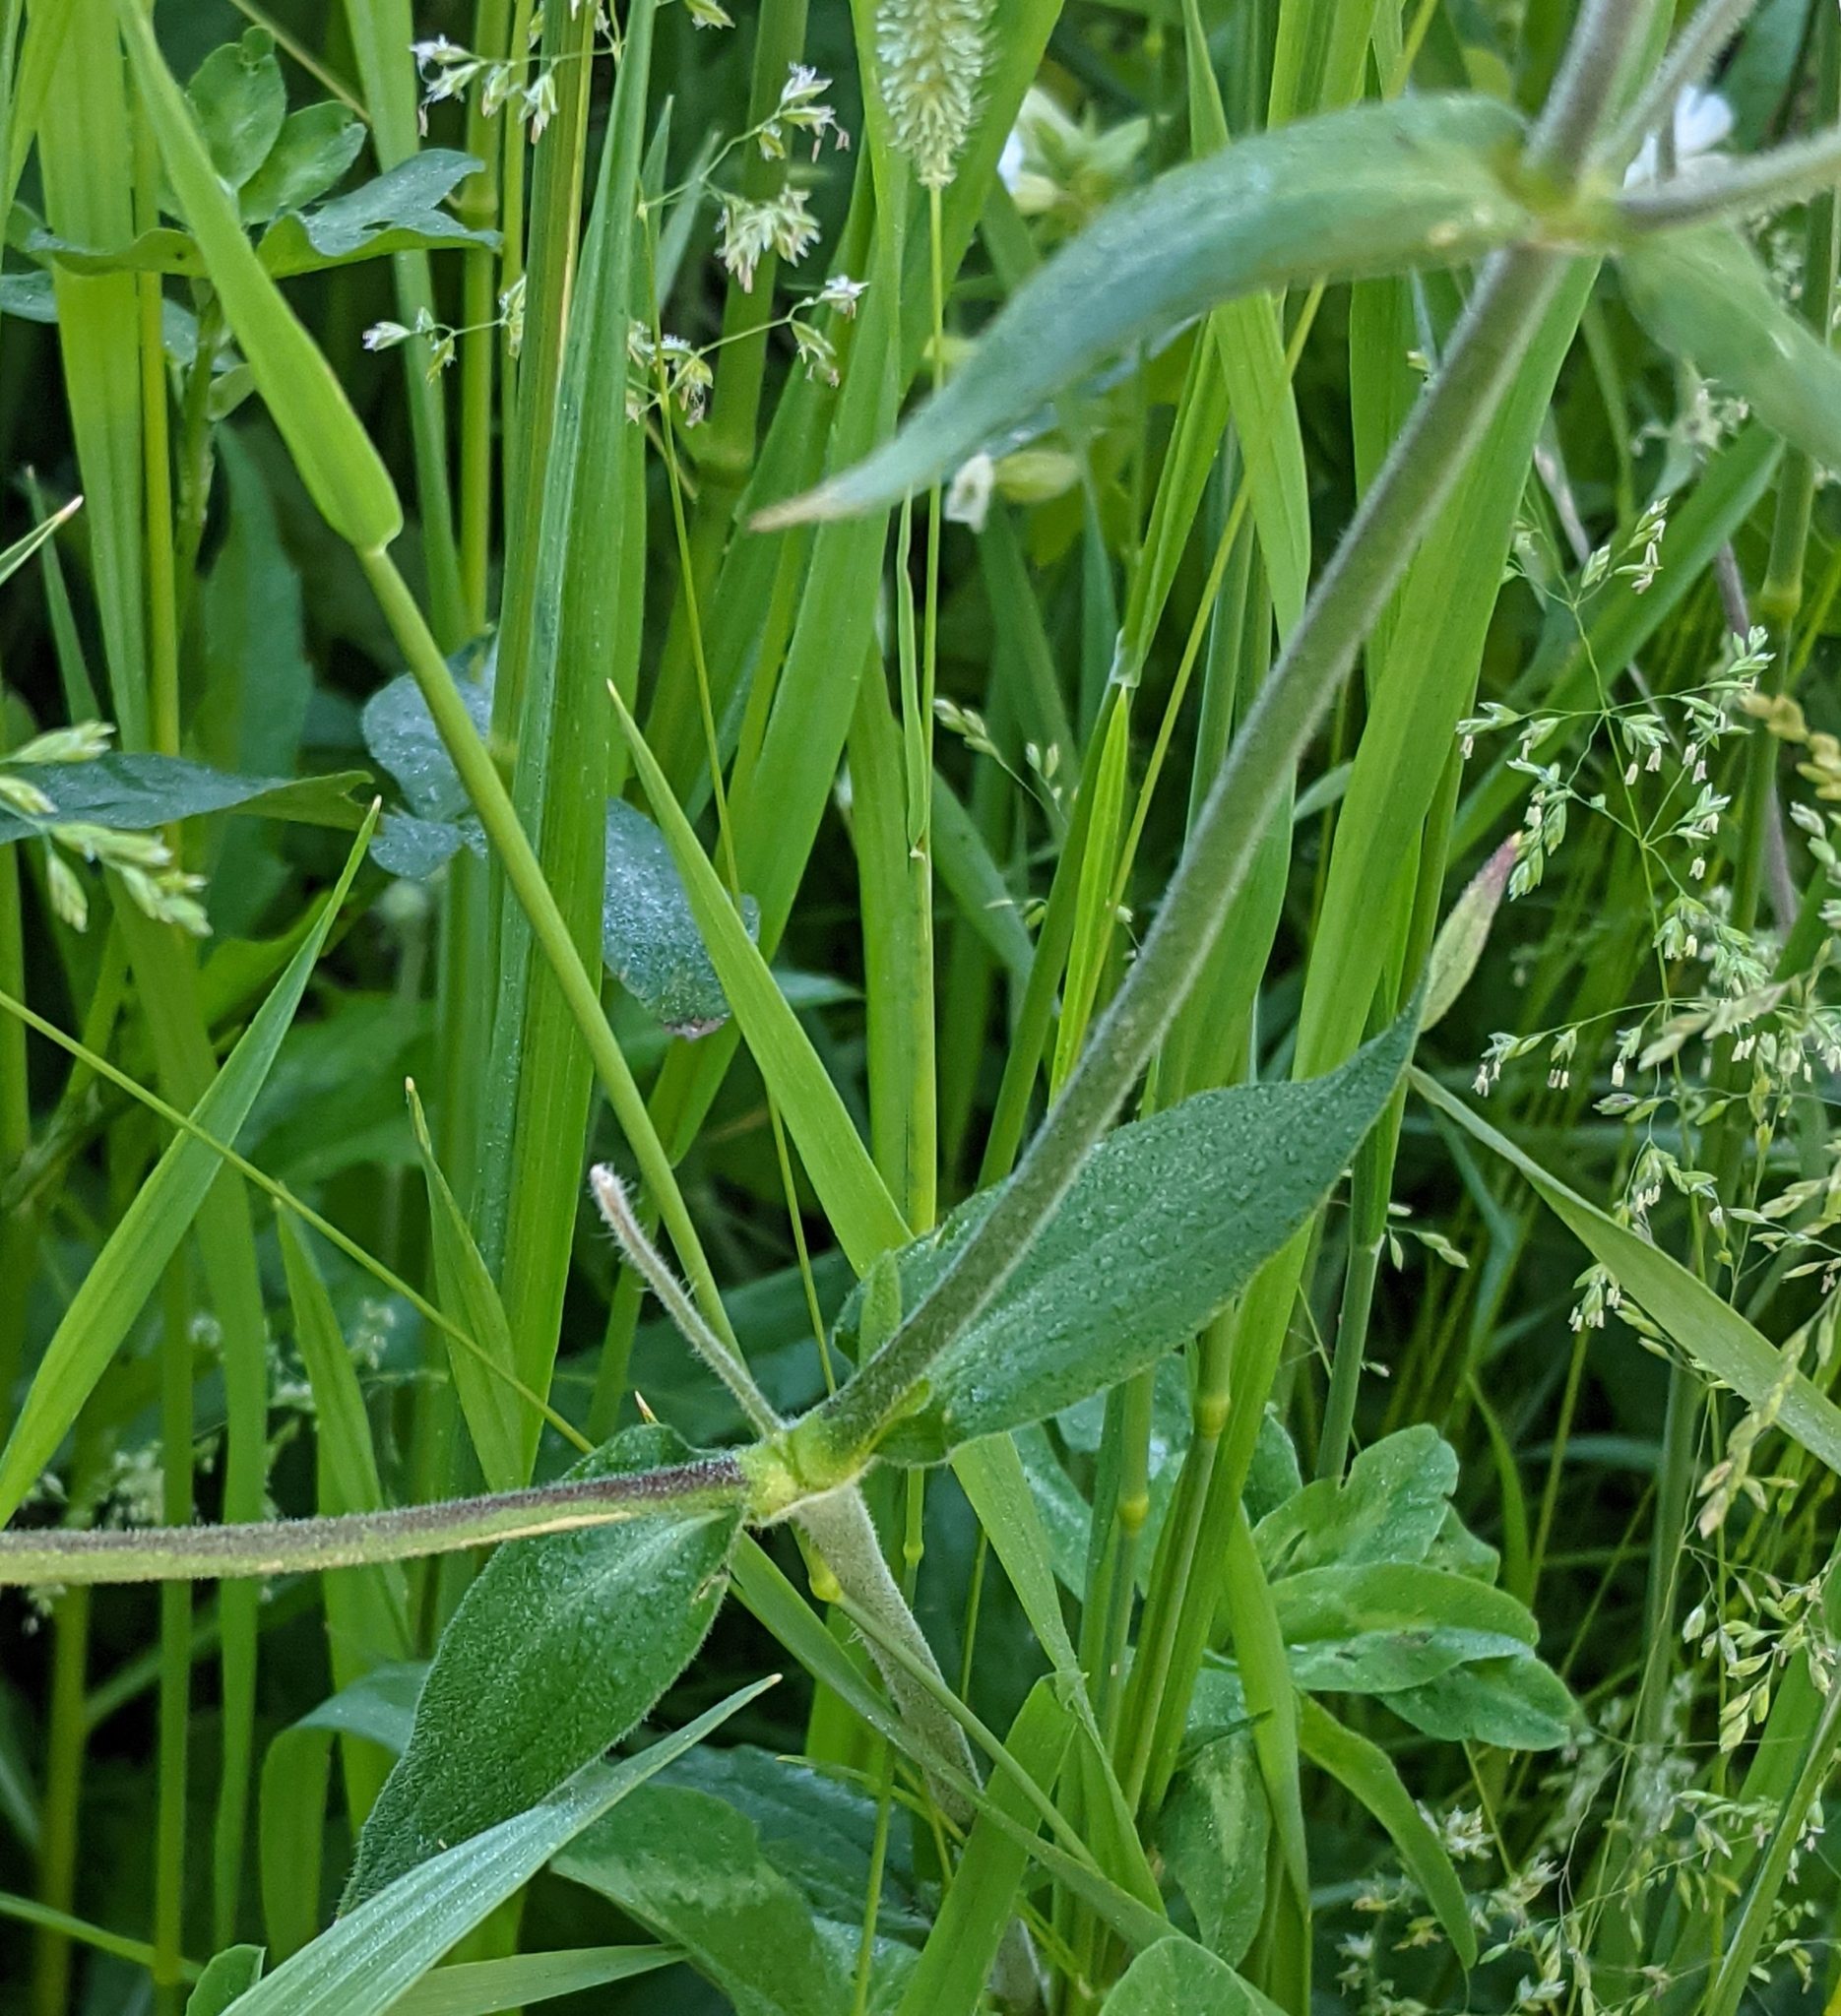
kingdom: Plantae
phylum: Tracheophyta
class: Magnoliopsida
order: Caryophyllales
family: Caryophyllaceae
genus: Silene
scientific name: Silene latifolia
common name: White campion
